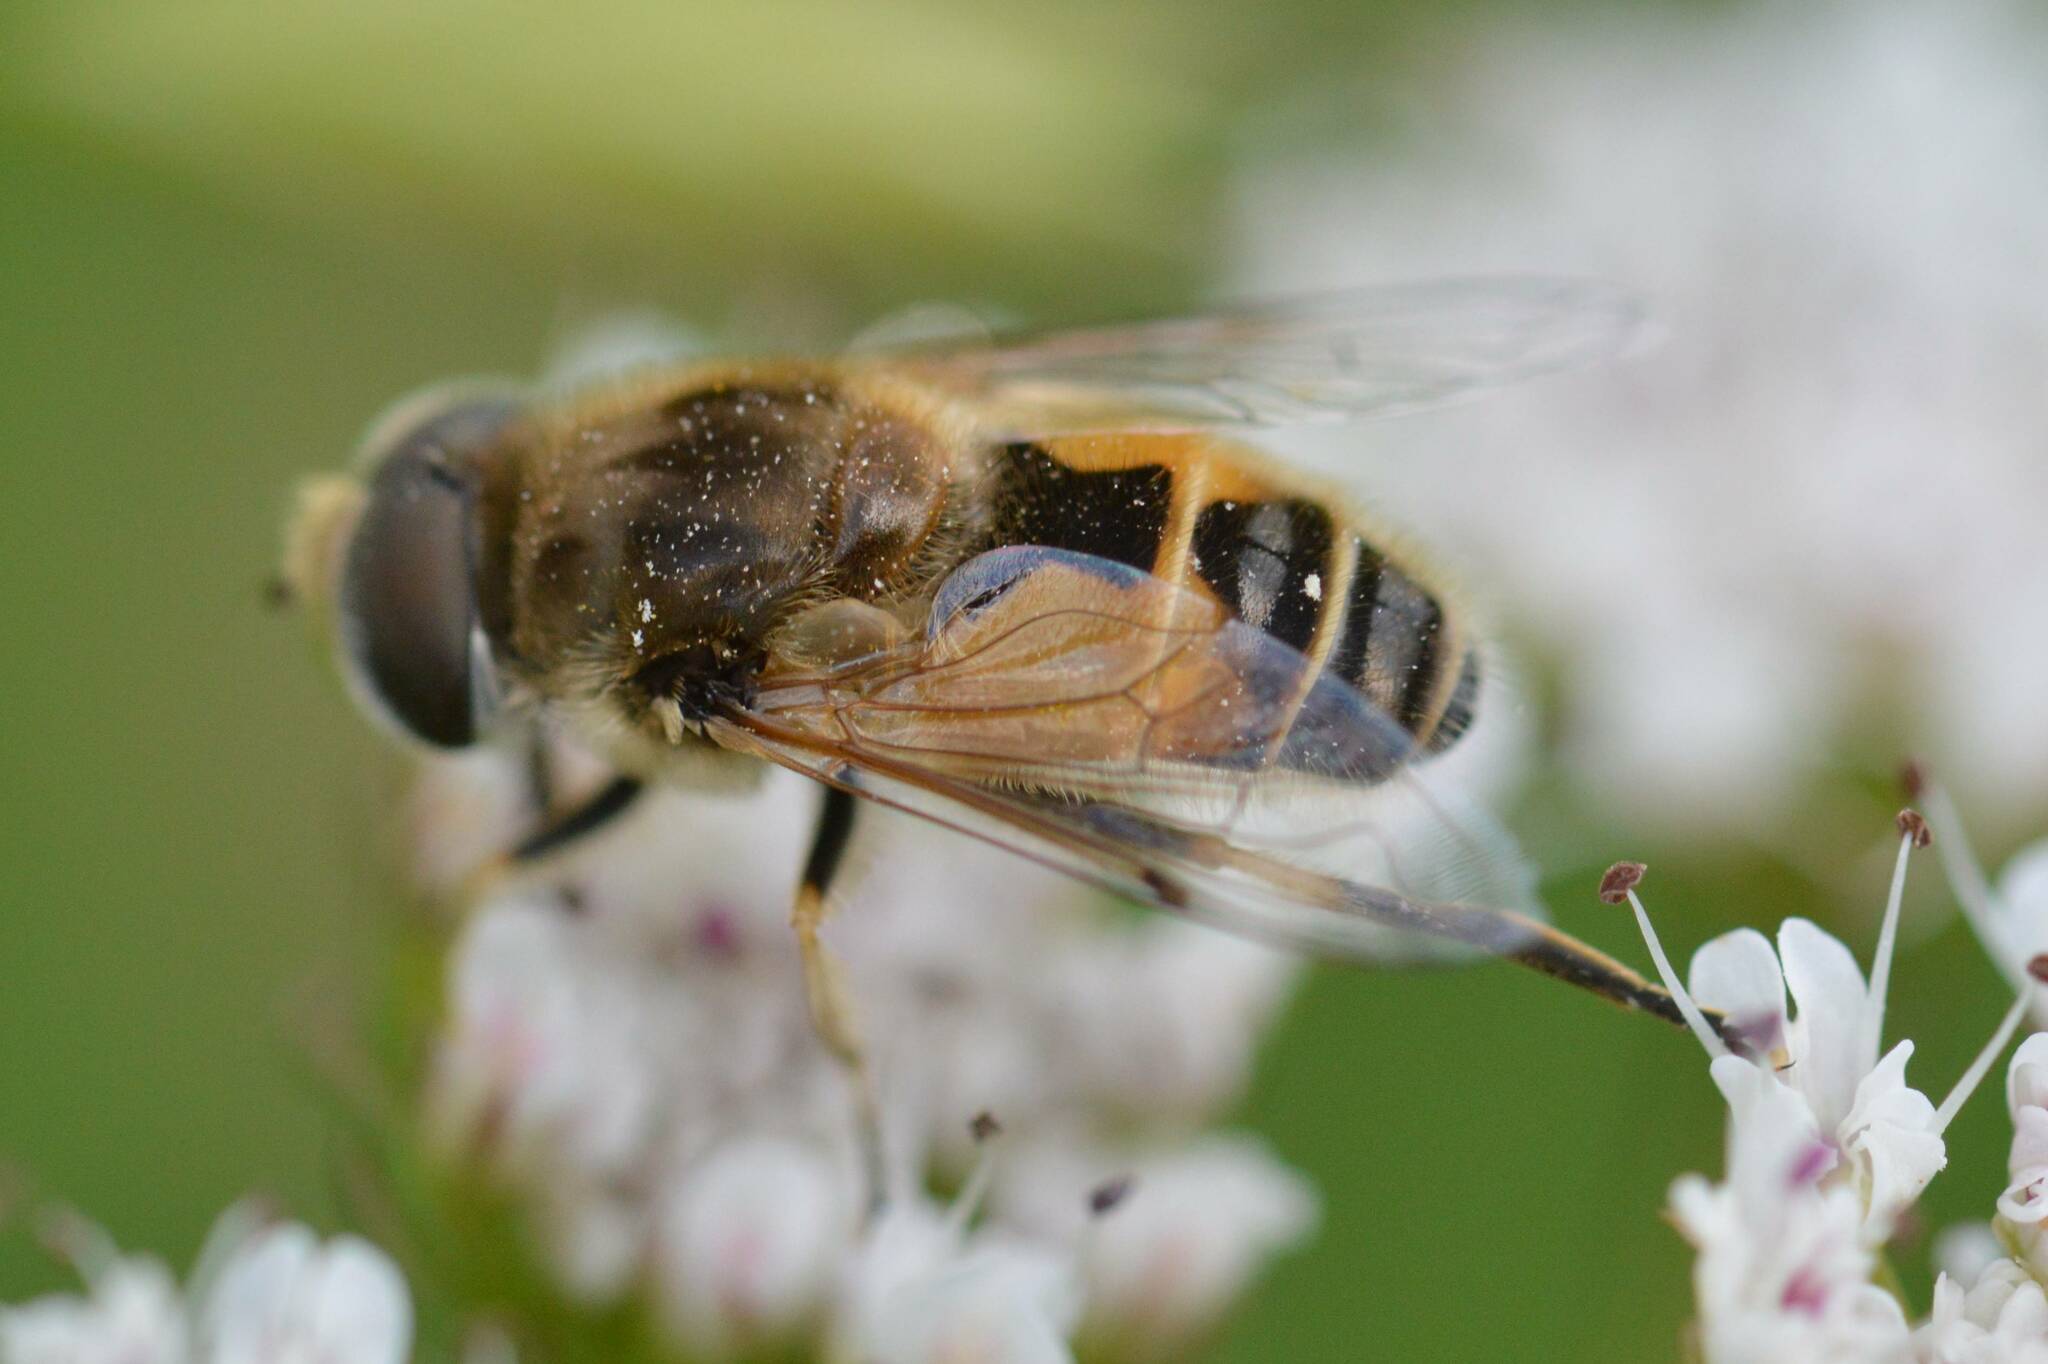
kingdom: Animalia
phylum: Arthropoda
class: Insecta
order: Diptera
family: Syrphidae
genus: Eristalis
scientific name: Eristalis arbustorum
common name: Hover fly
